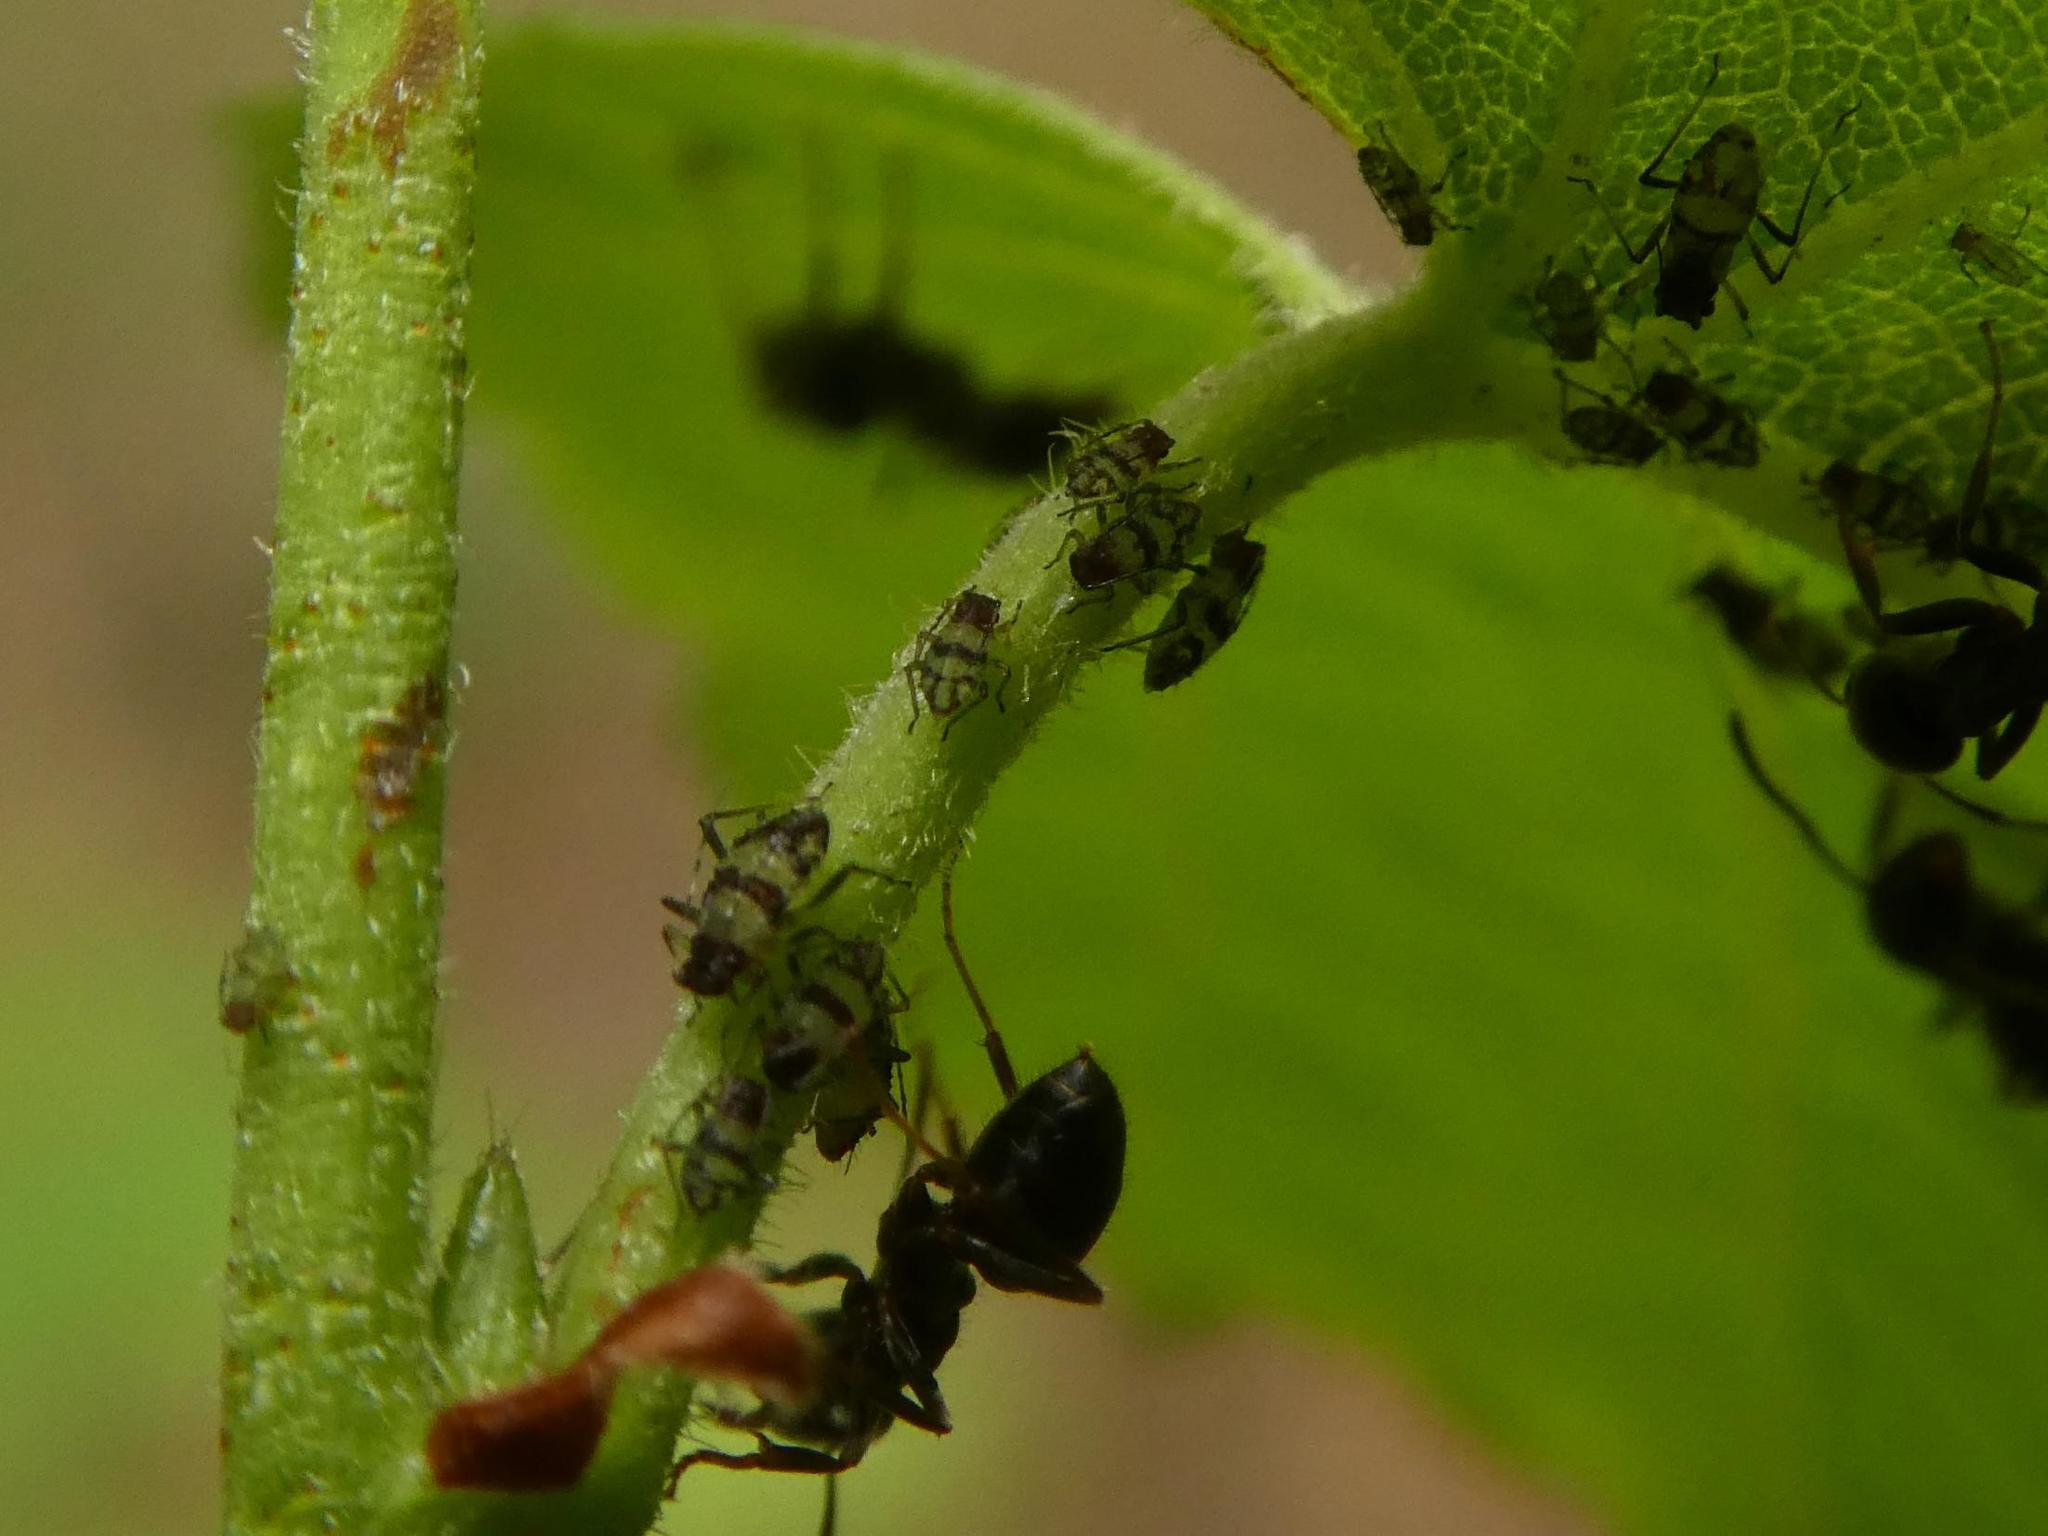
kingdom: Animalia
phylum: Arthropoda
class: Insecta
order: Hemiptera
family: Aphididae
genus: Callipterinella
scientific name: Callipterinella tuberculata
